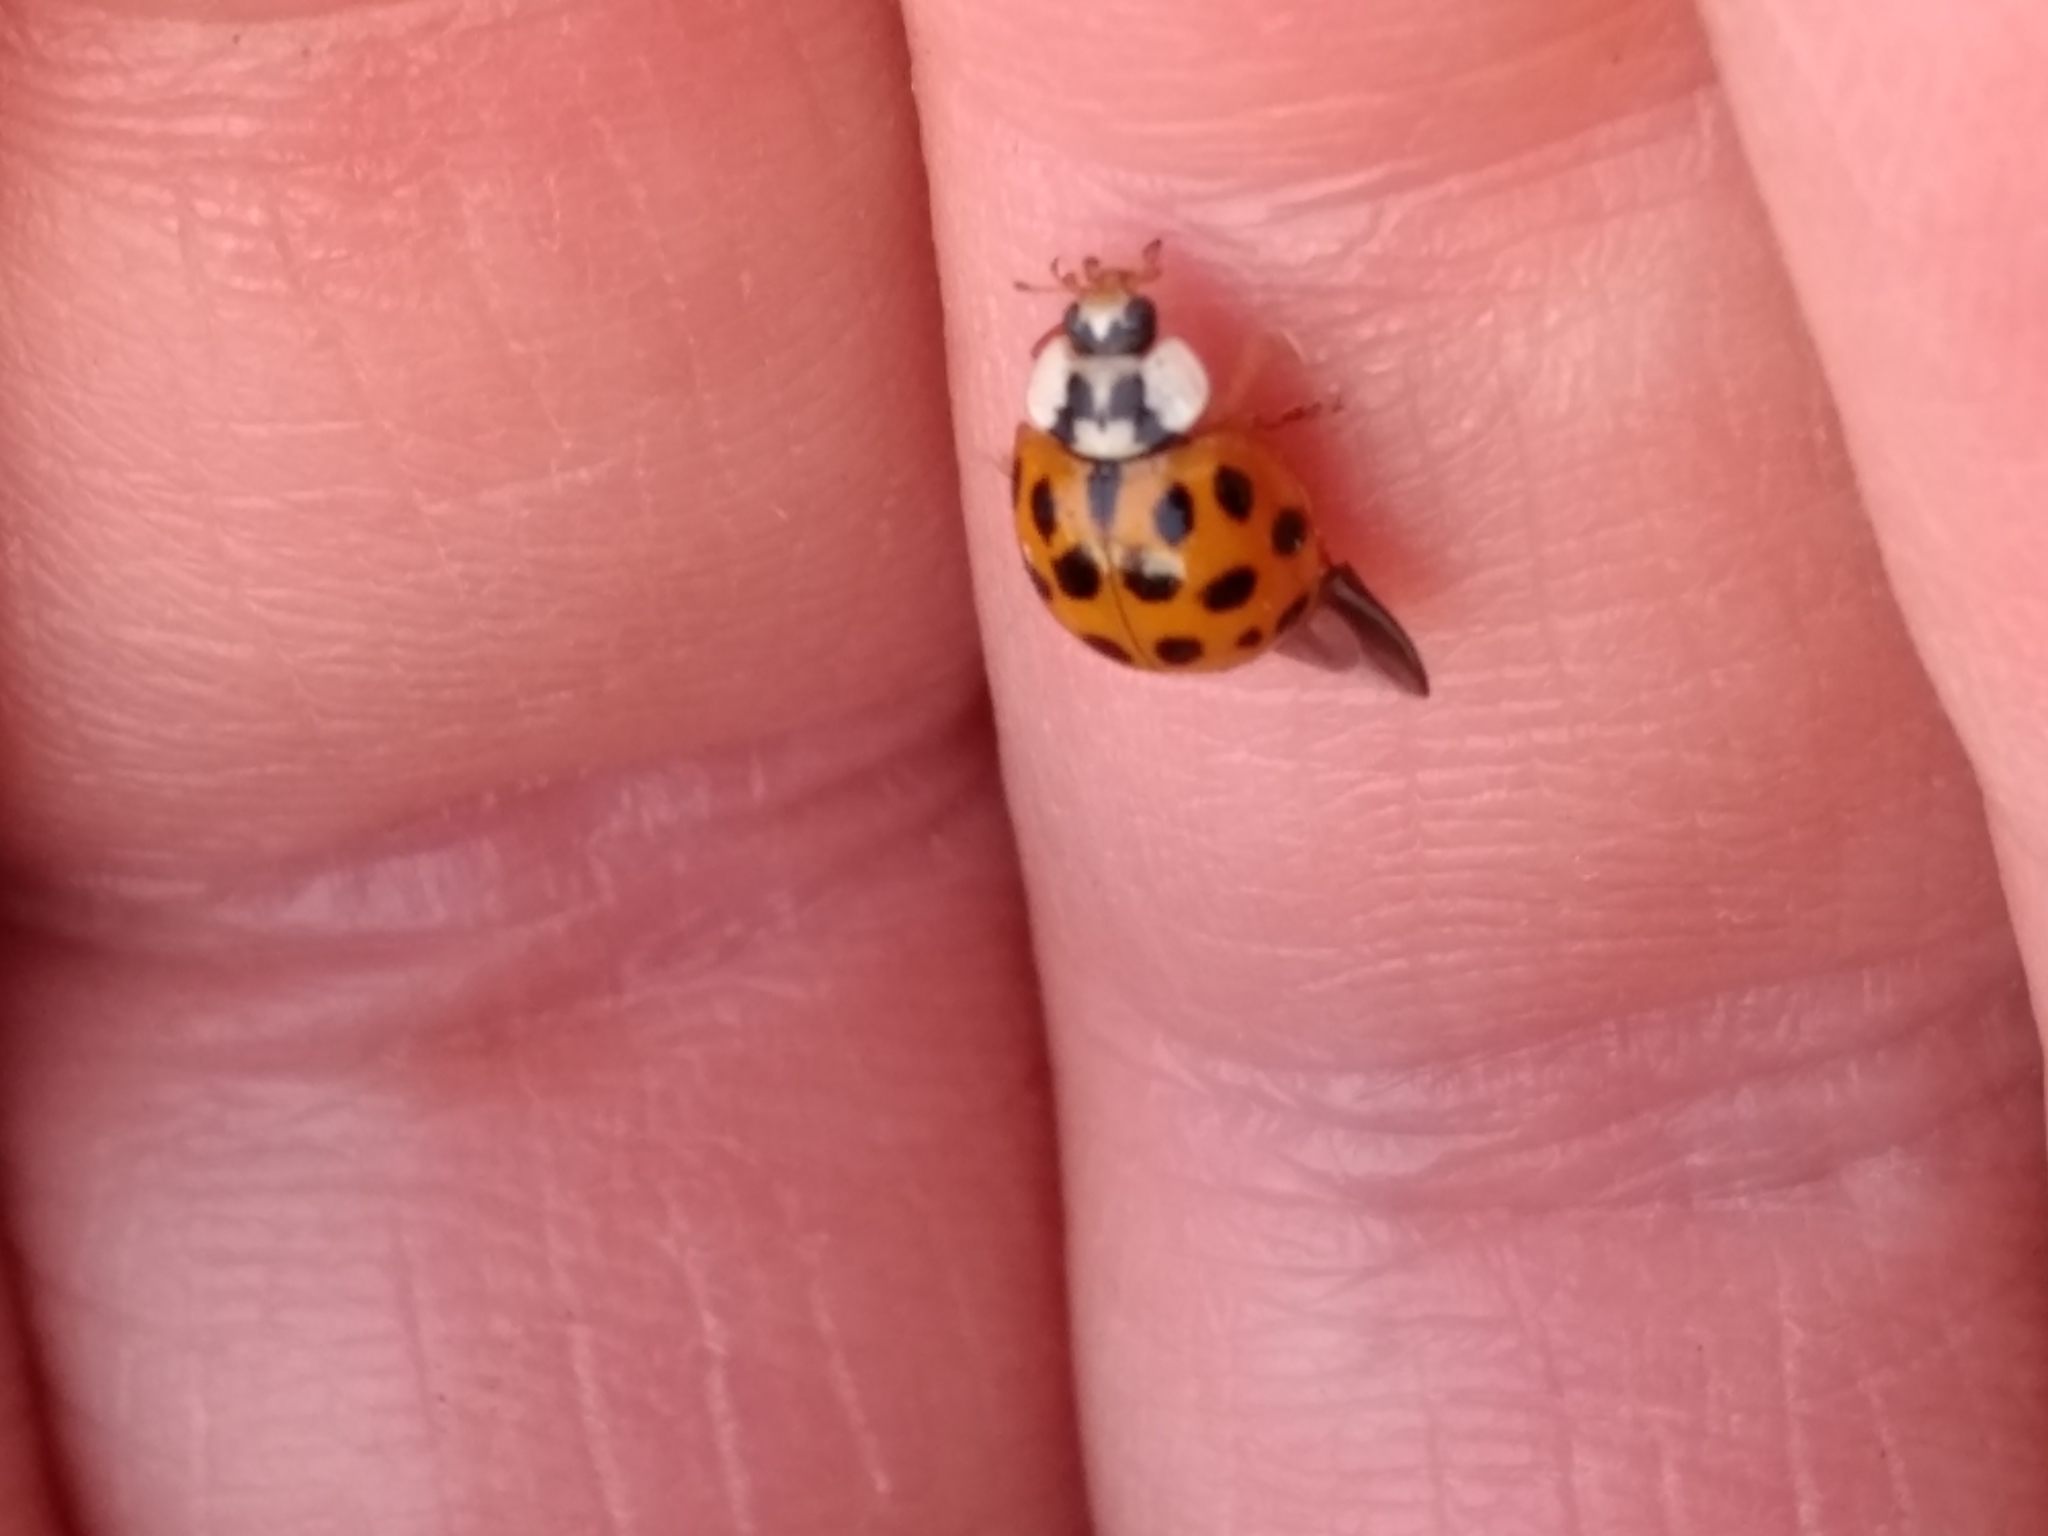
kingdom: Animalia
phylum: Arthropoda
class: Insecta
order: Coleoptera
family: Coccinellidae
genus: Harmonia
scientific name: Harmonia axyridis
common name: Harlequin ladybird
